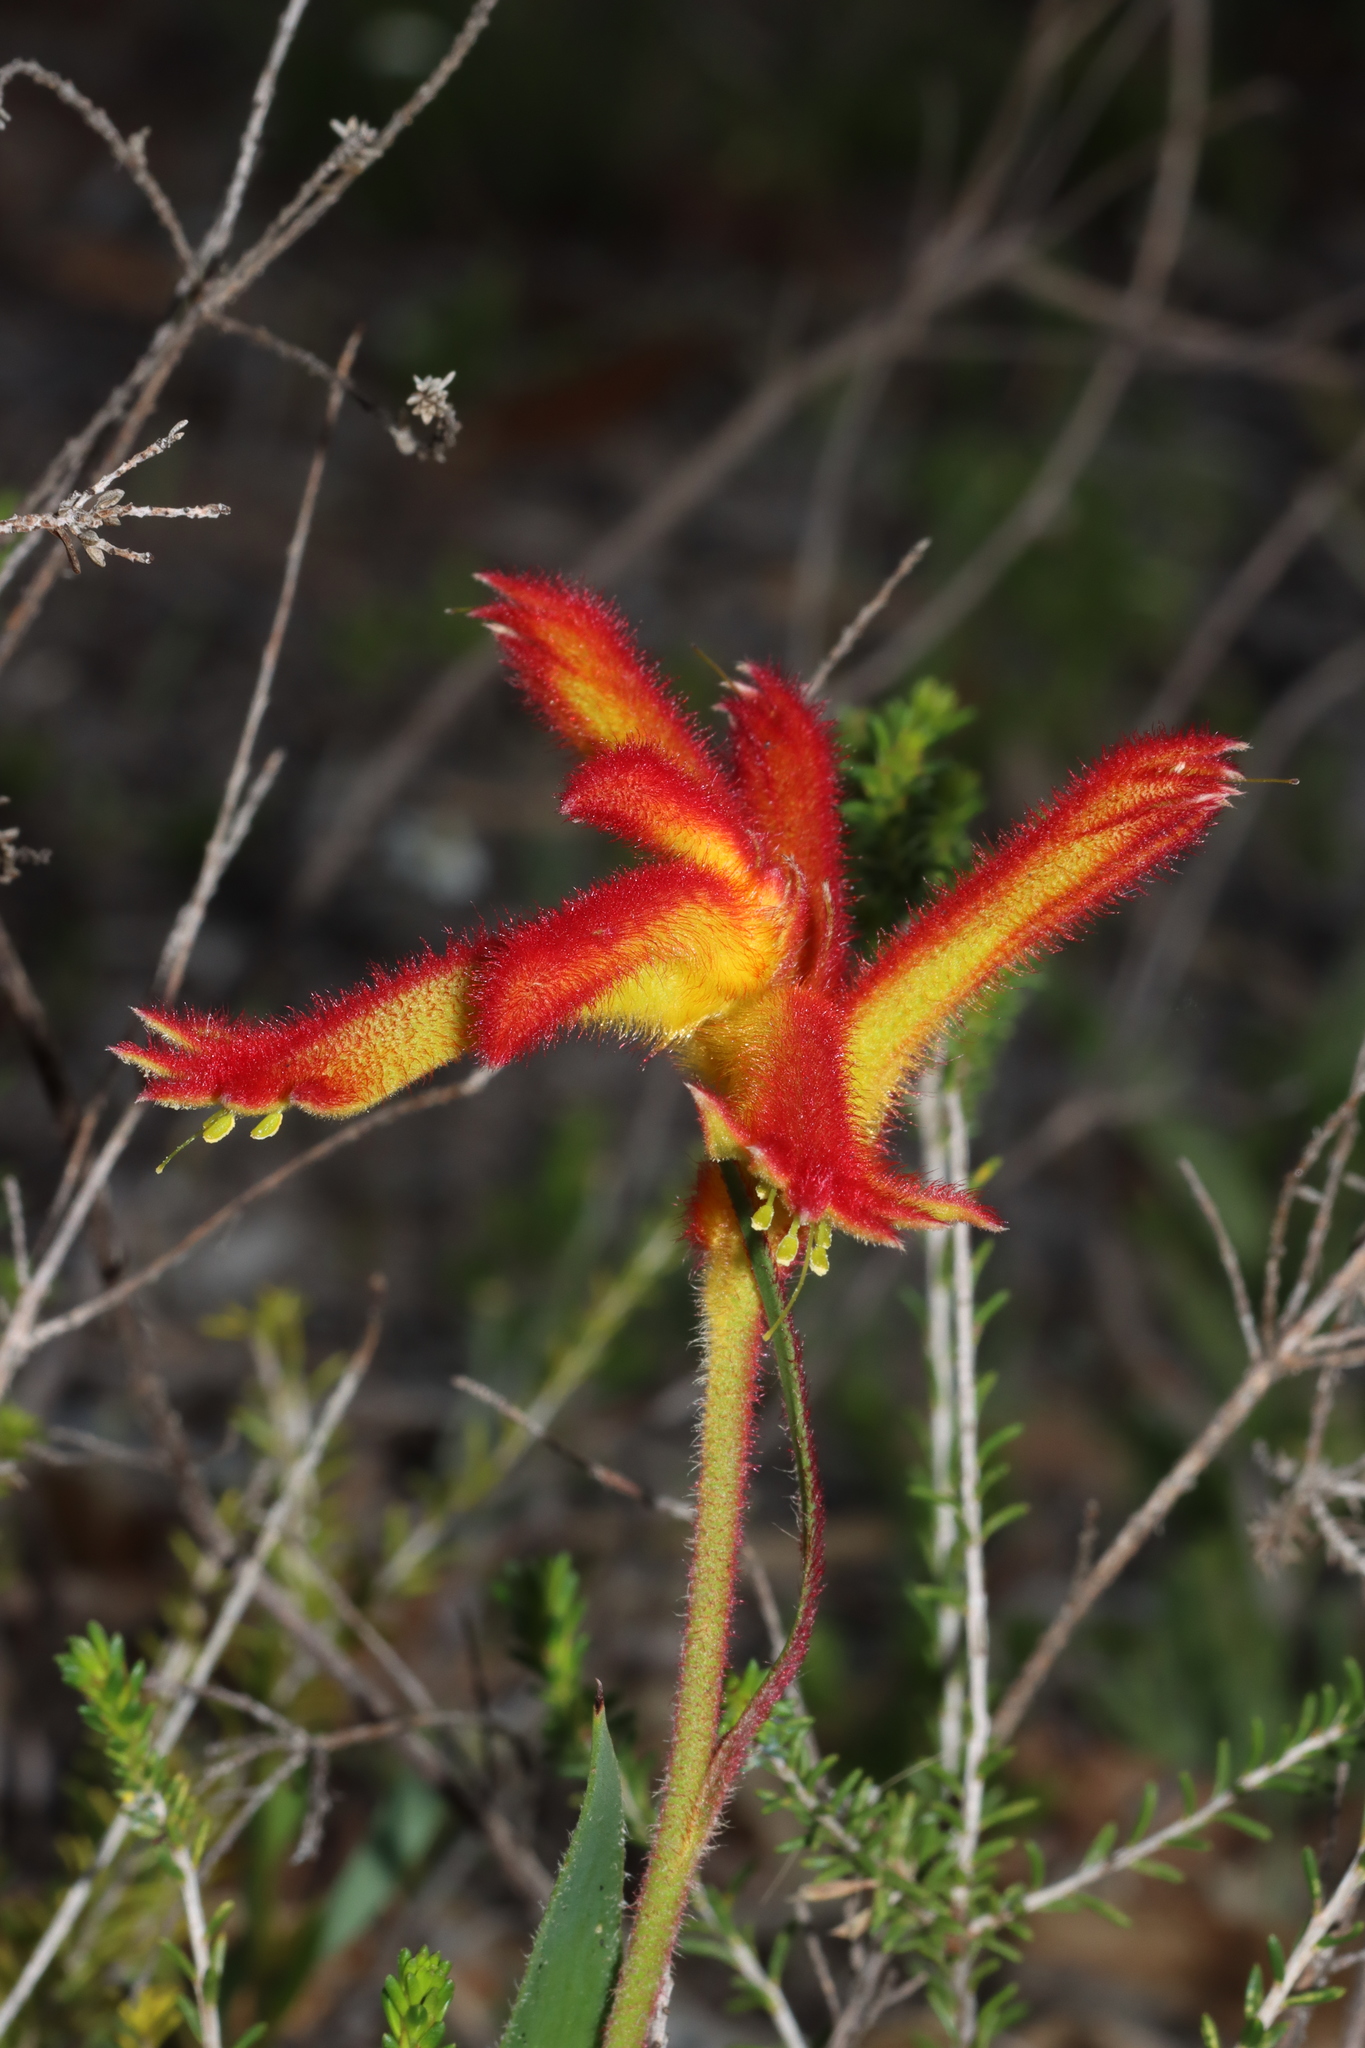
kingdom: Plantae
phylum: Tracheophyta
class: Liliopsida
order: Commelinales
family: Haemodoraceae
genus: Anigozanthos
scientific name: Anigozanthos humilis
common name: Cat's-paw
